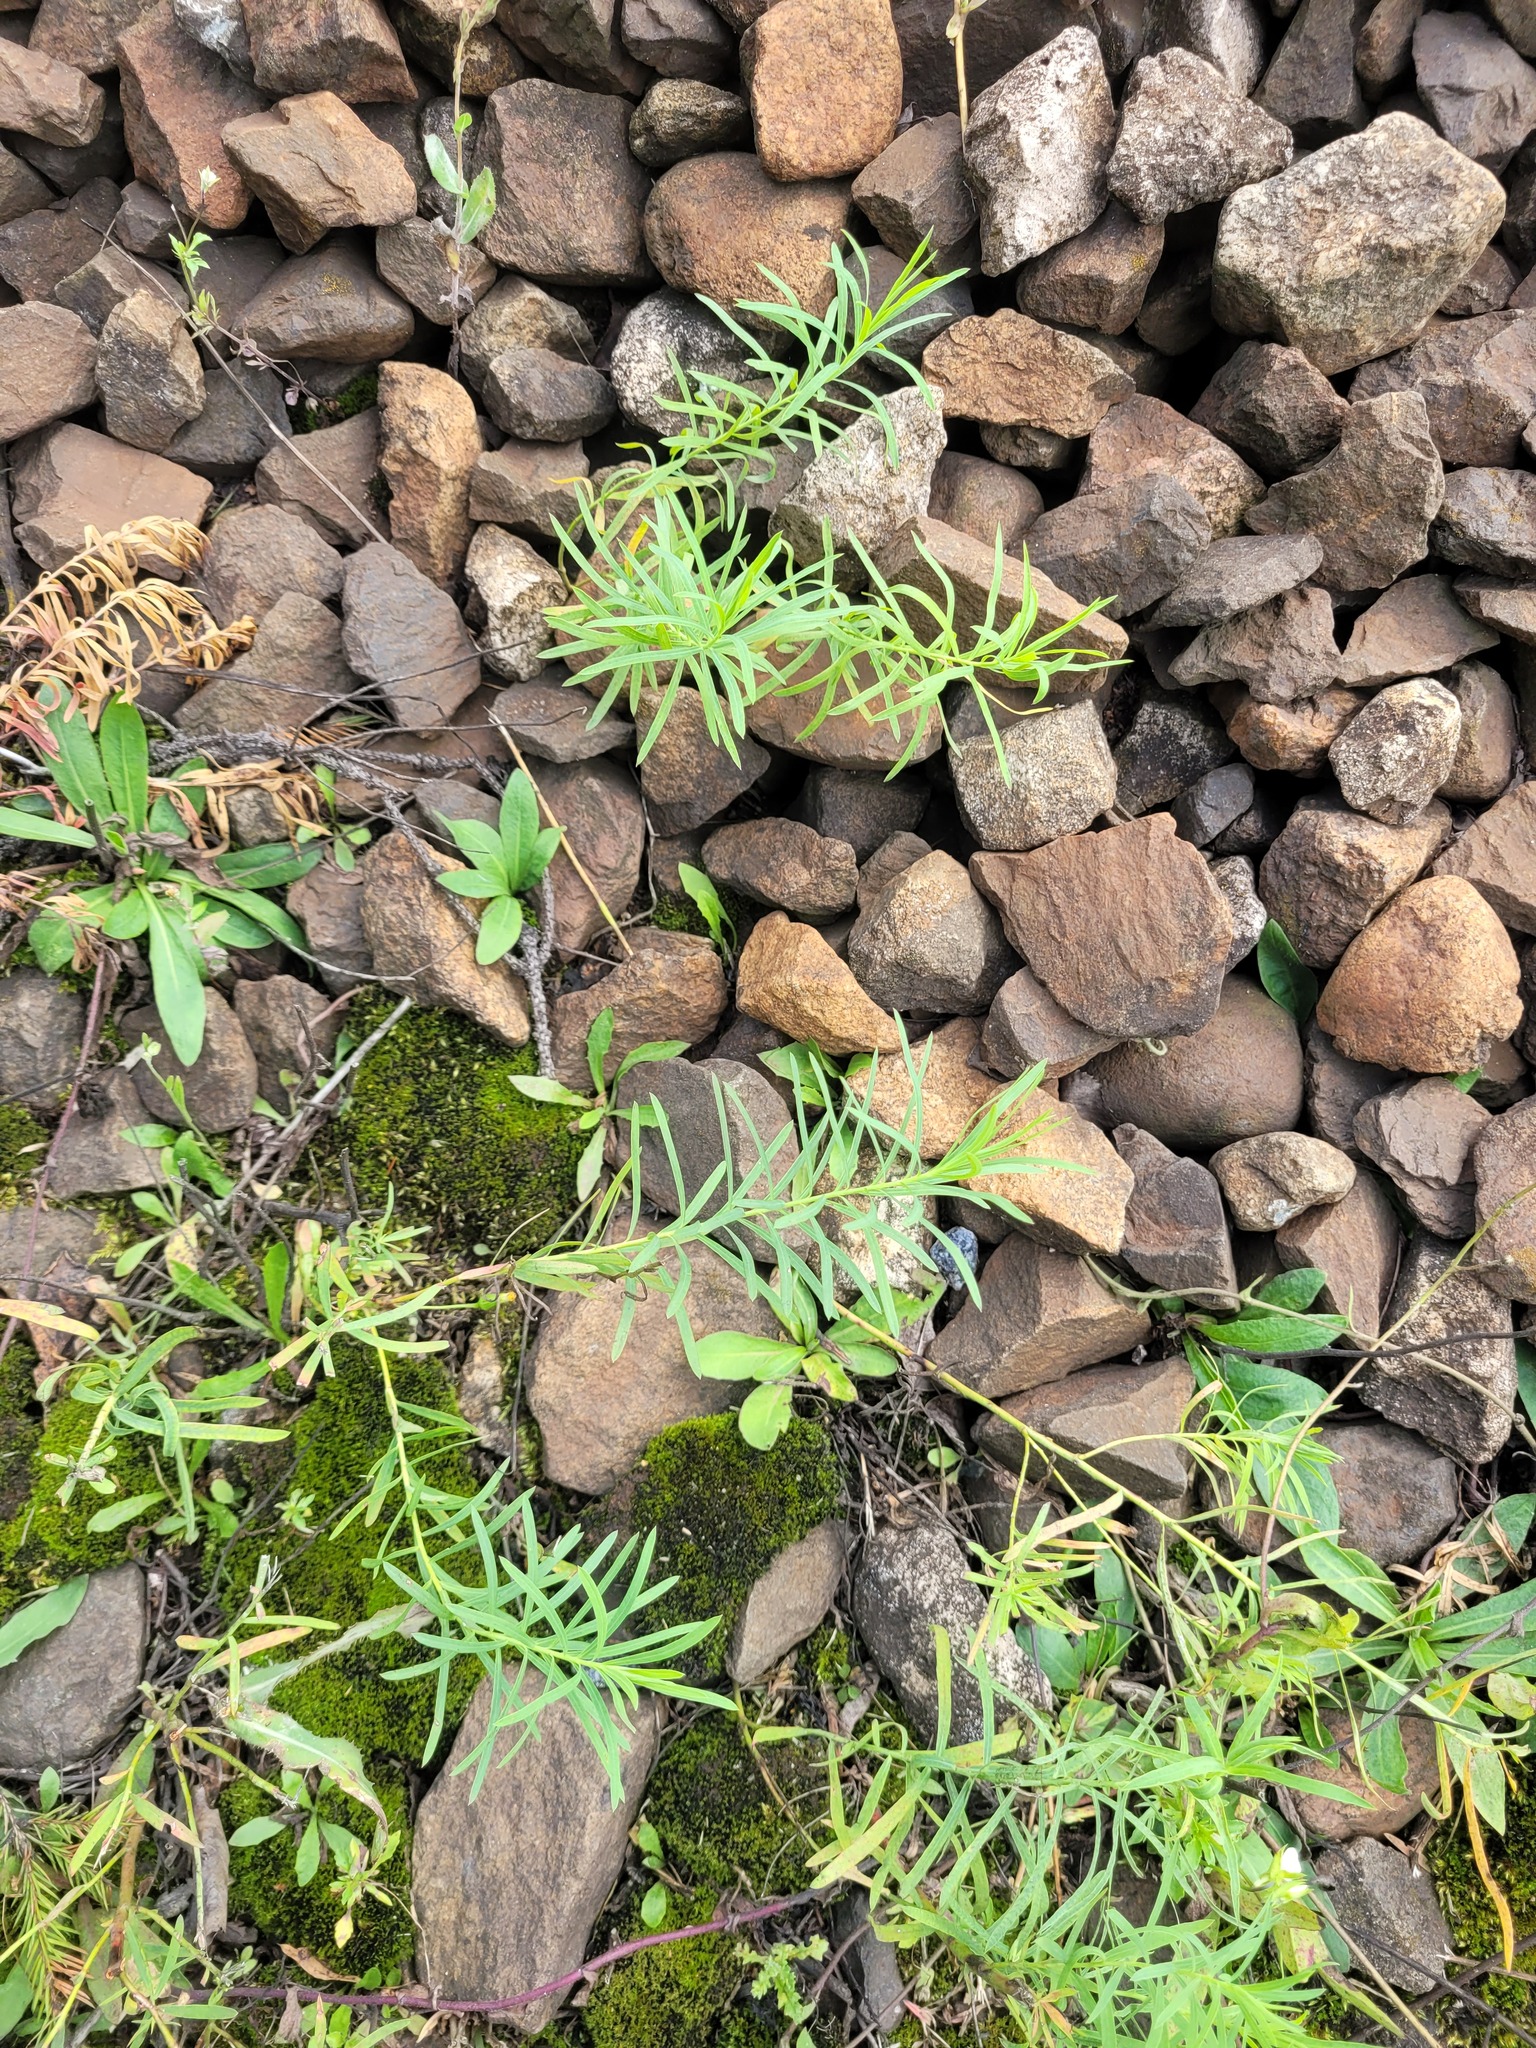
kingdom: Plantae
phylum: Tracheophyta
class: Magnoliopsida
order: Malpighiales
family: Euphorbiaceae
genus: Euphorbia
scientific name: Euphorbia virgata
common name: Leafy spurge
